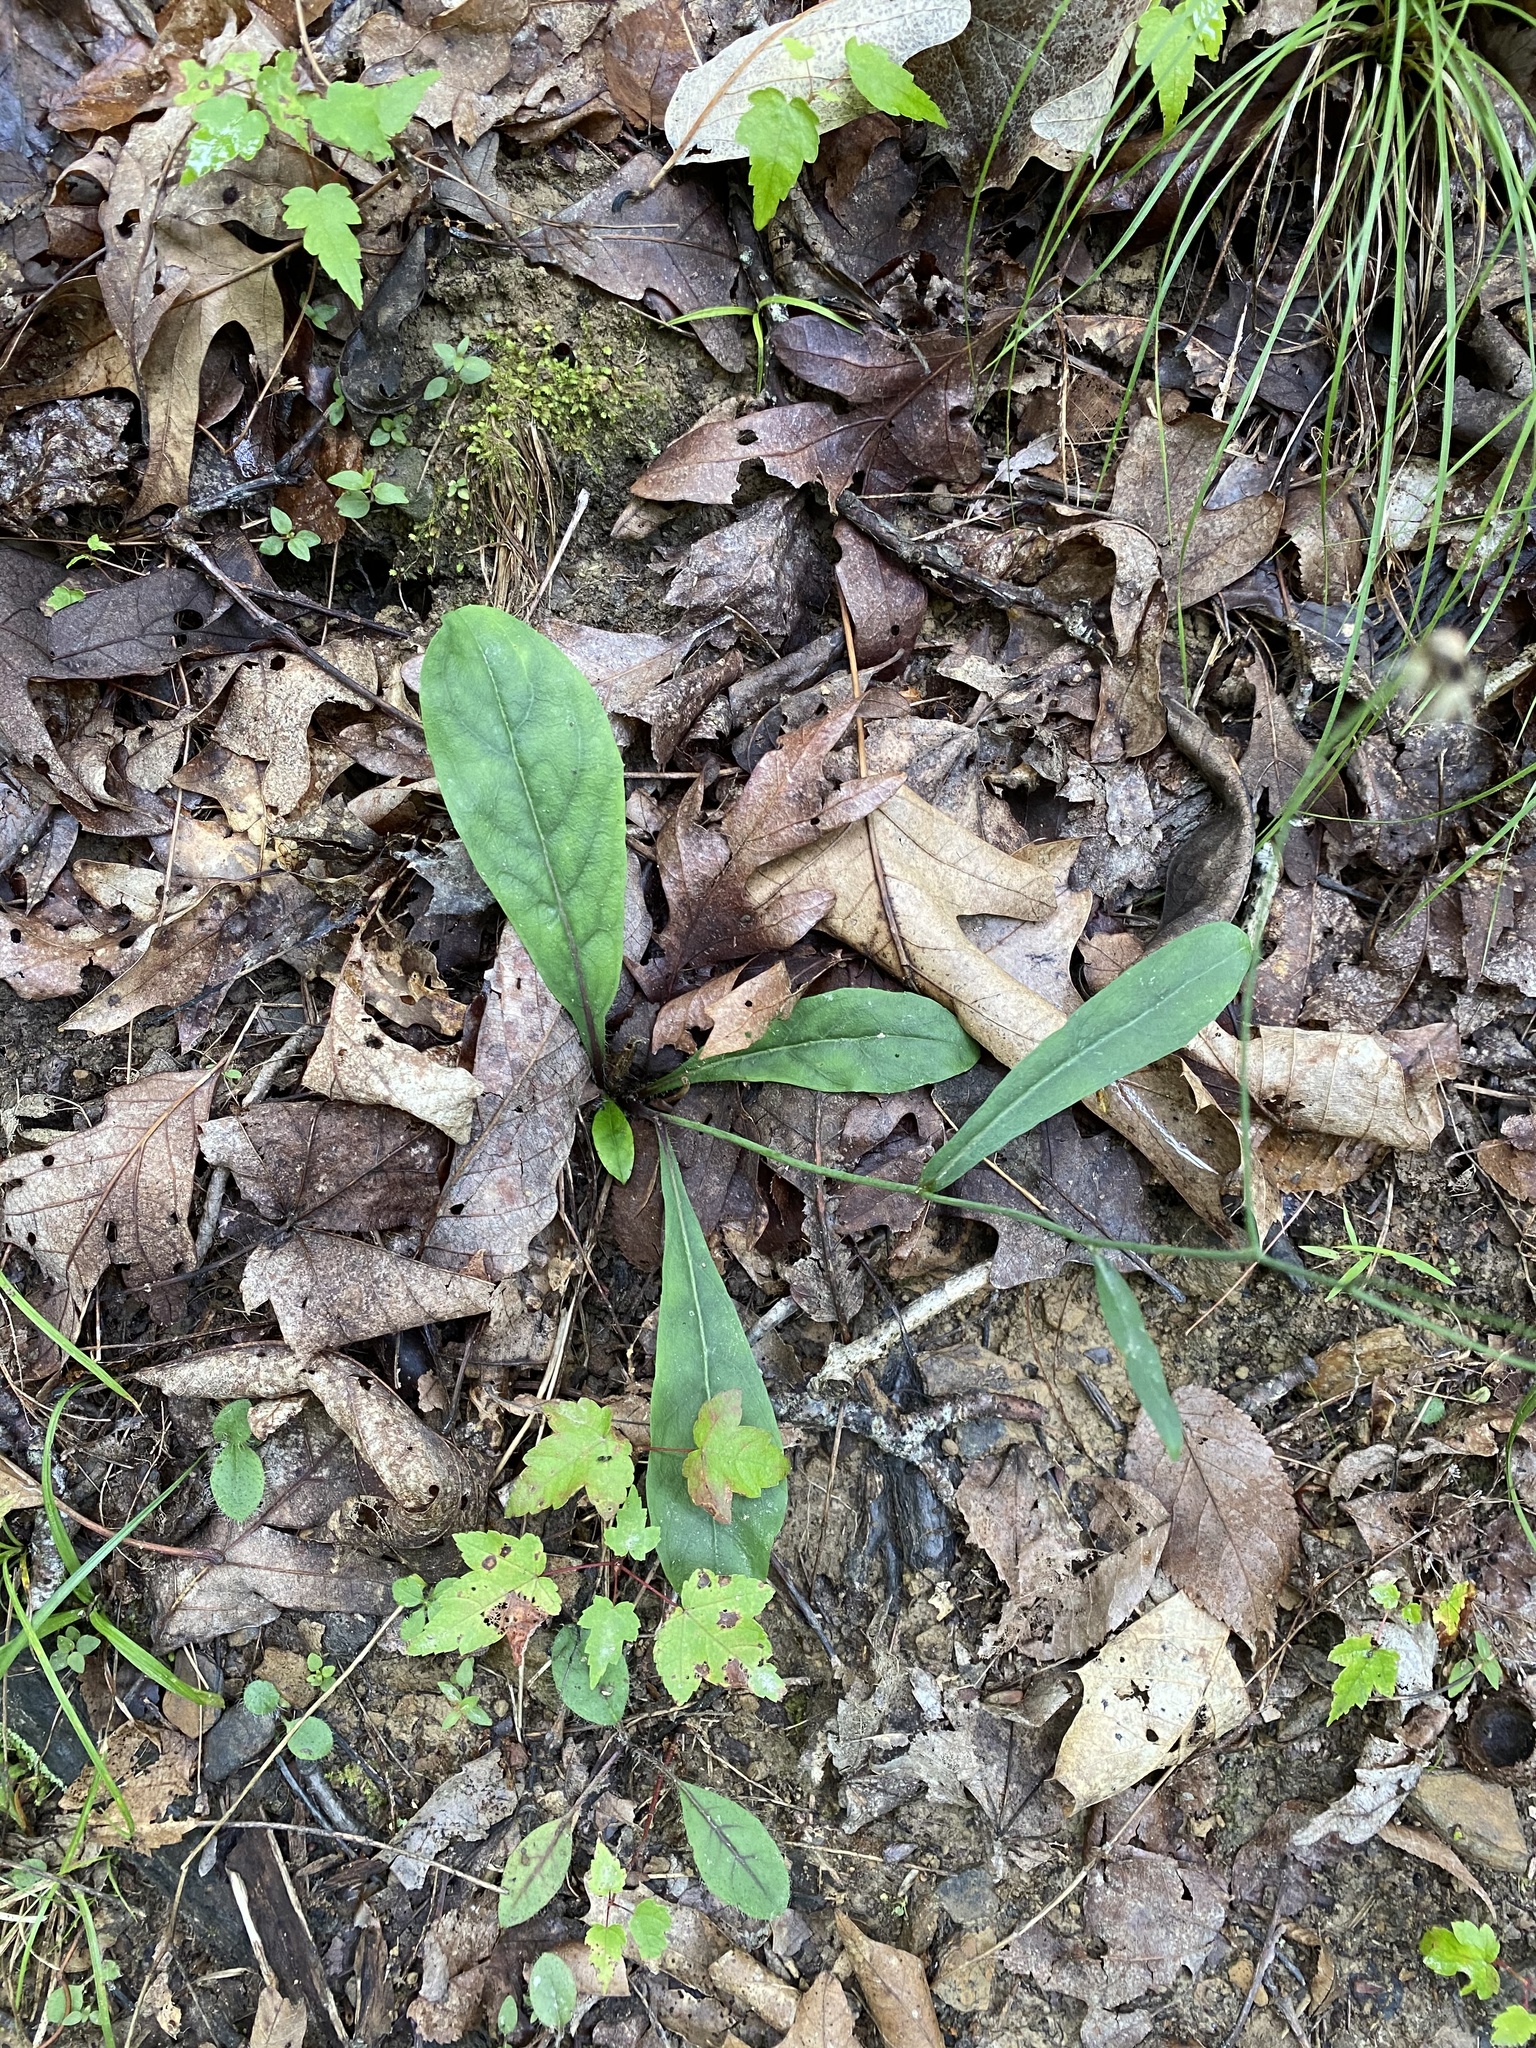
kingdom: Plantae
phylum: Tracheophyta
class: Magnoliopsida
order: Asterales
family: Asteraceae
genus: Hieracium
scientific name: Hieracium venosum
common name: Rattlesnake hawkweed
